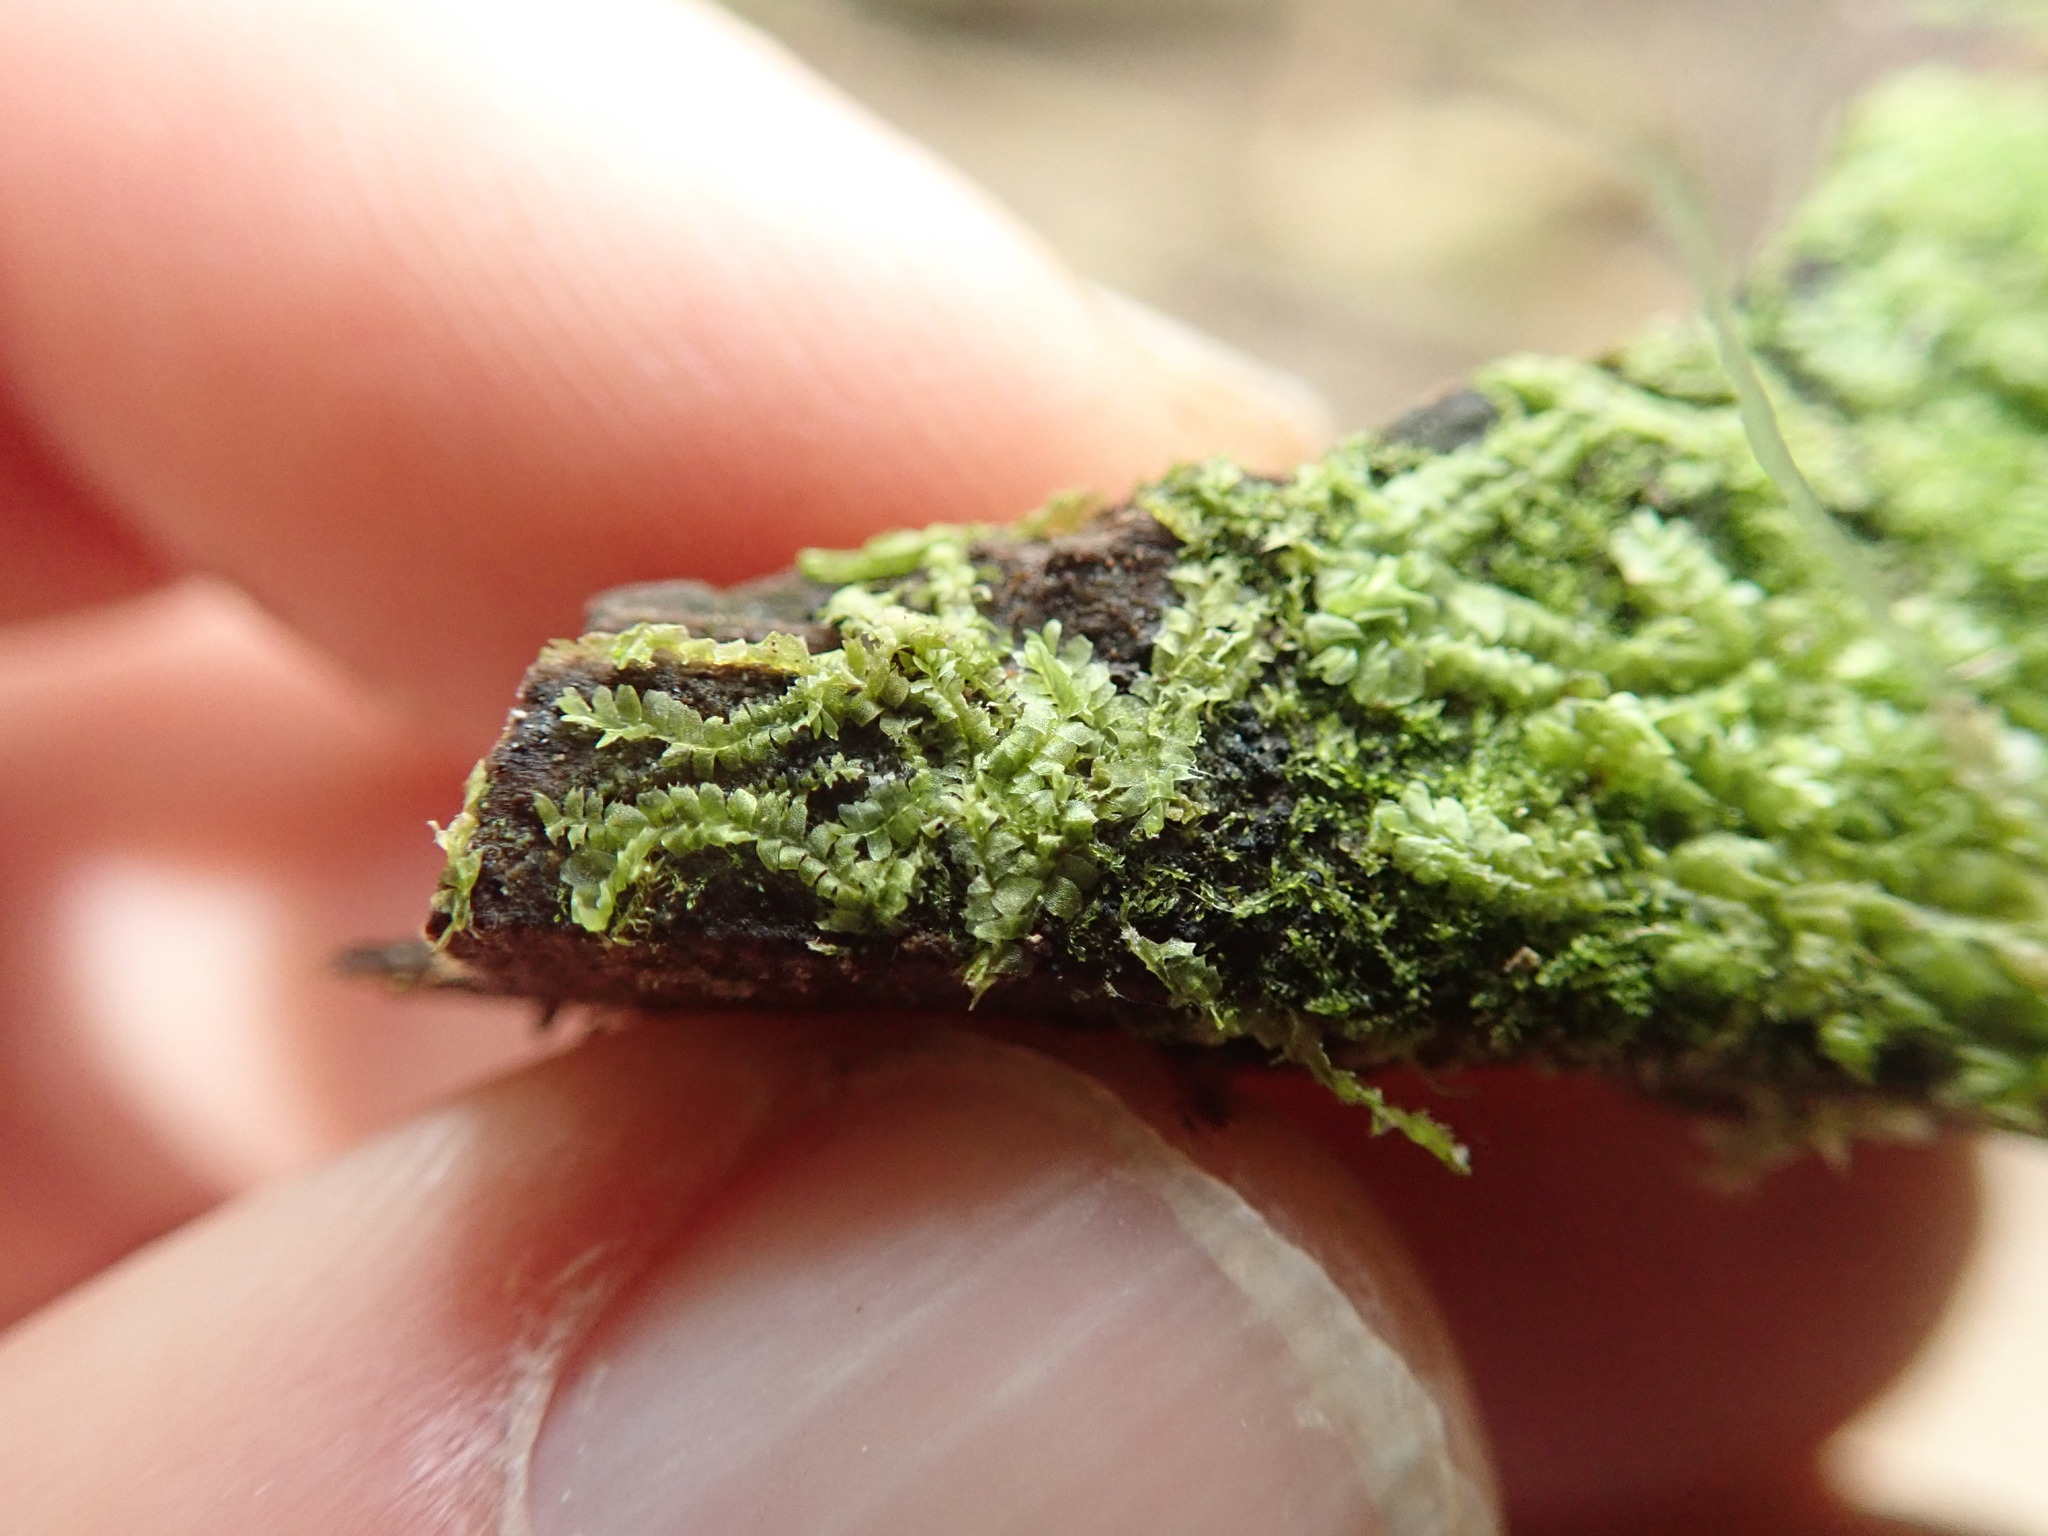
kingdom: Plantae
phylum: Marchantiophyta
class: Jungermanniopsida
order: Jungermanniales
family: Lophocoleaceae
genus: Lophocolea
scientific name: Lophocolea heterophylla
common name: Variable-leaved crestwort
